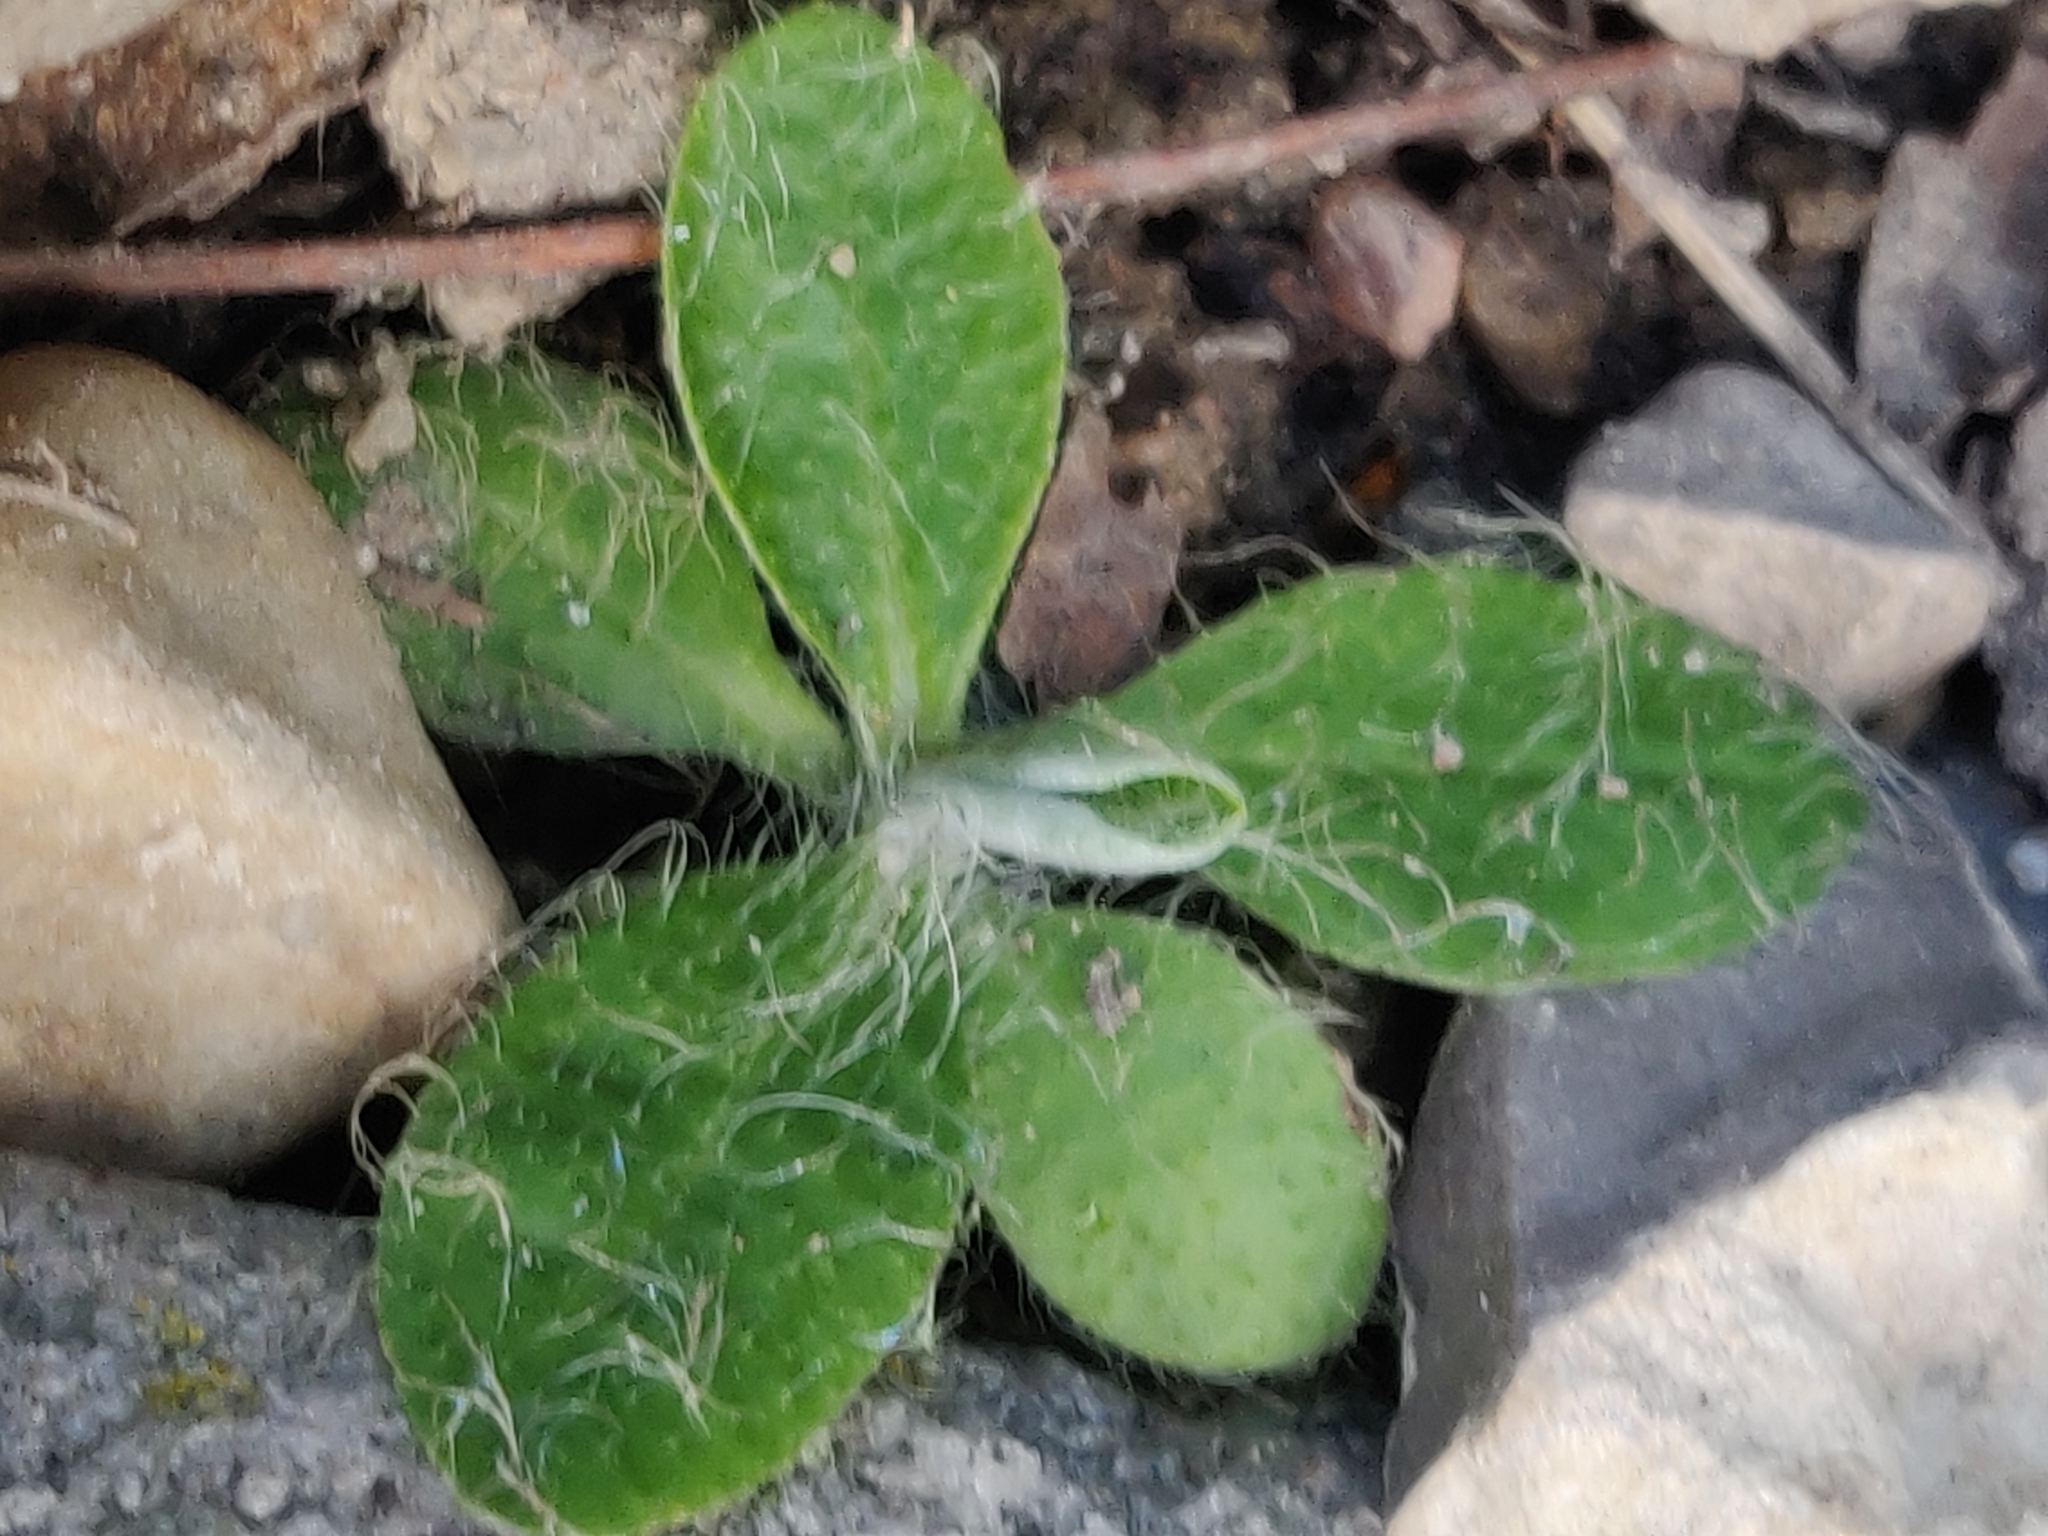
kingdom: Plantae
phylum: Tracheophyta
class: Magnoliopsida
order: Asterales
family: Asteraceae
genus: Pilosella
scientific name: Pilosella officinarum
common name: Mouse-ear hawkweed
